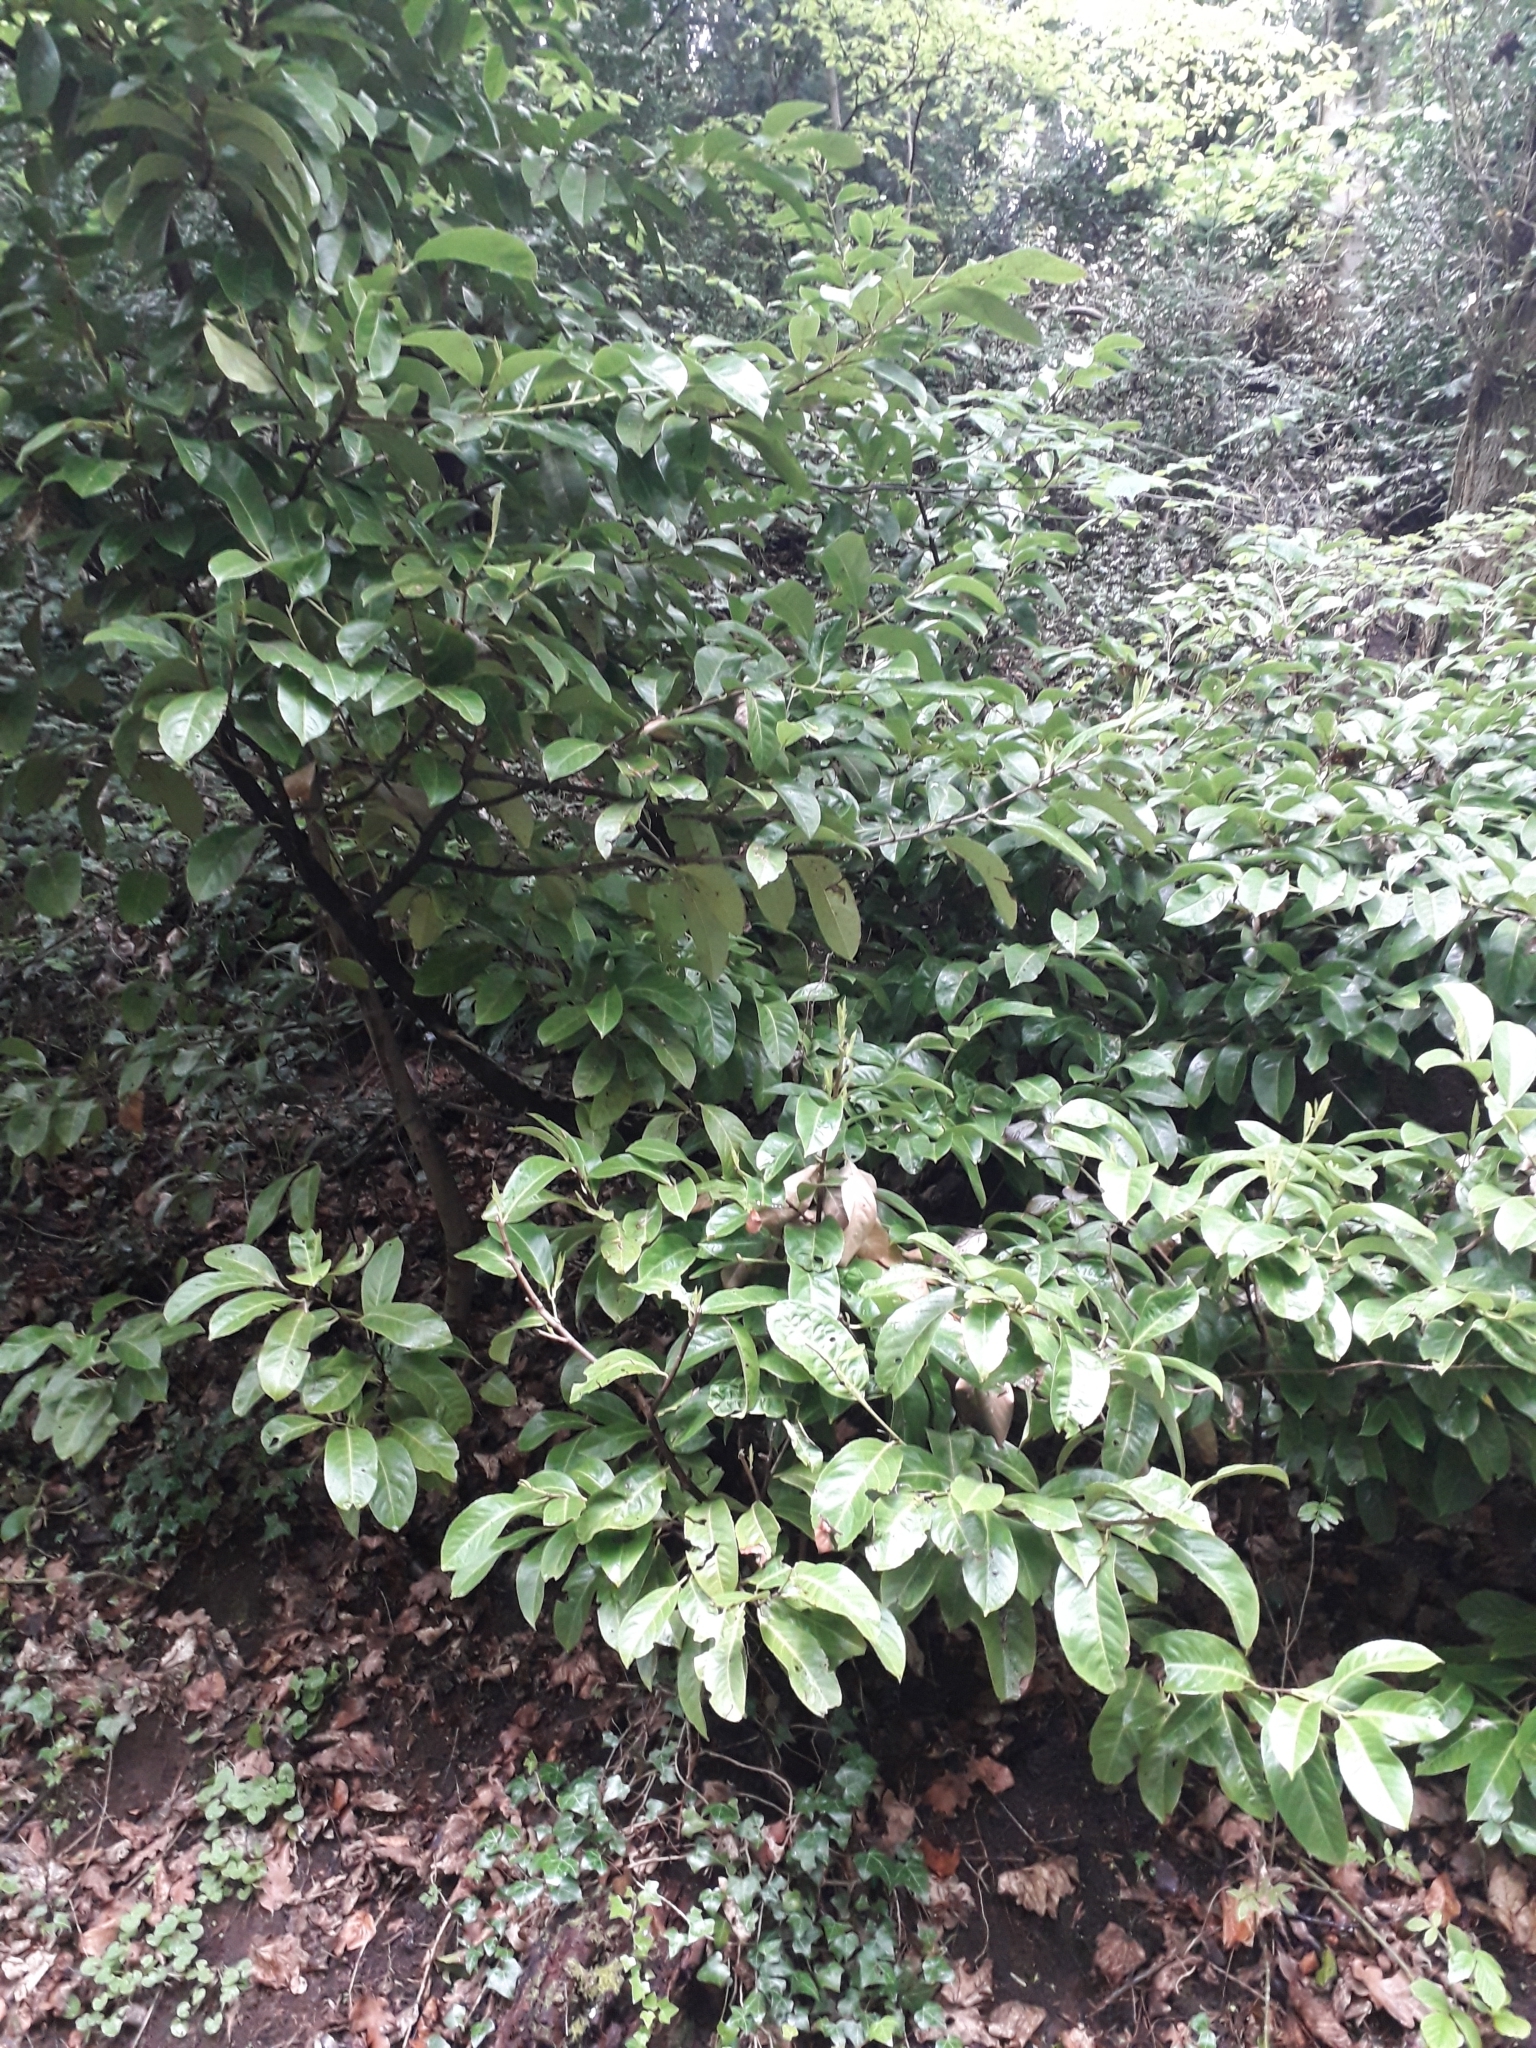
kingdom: Plantae
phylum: Tracheophyta
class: Magnoliopsida
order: Rosales
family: Rosaceae
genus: Prunus
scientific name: Prunus laurocerasus
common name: Cherry laurel
